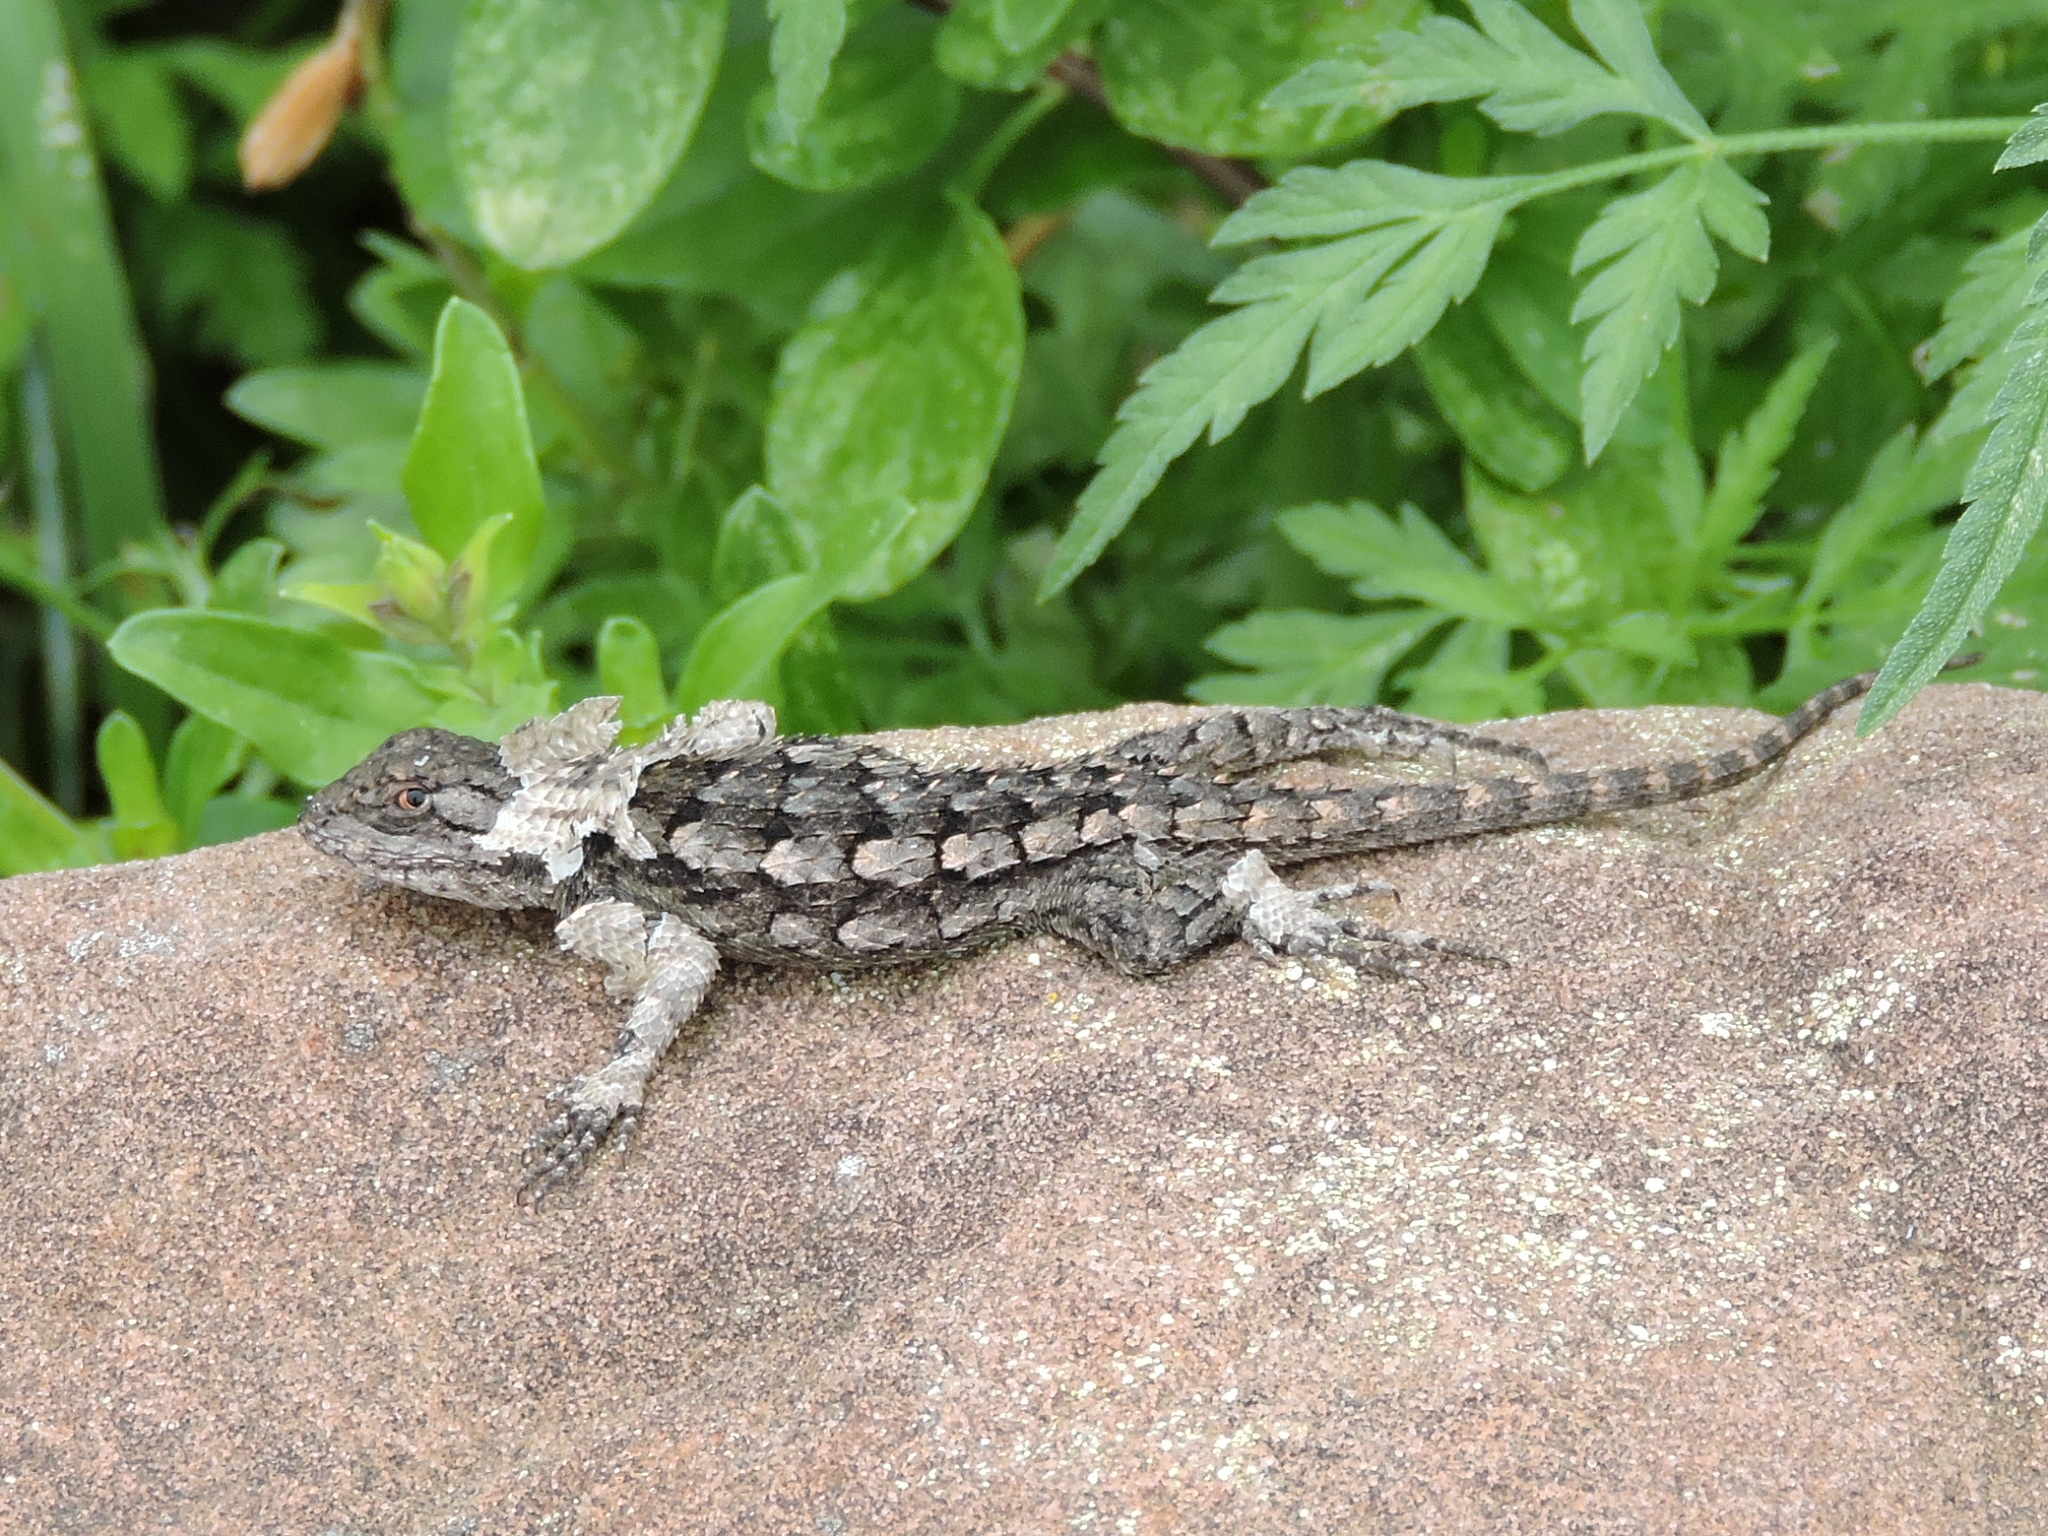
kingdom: Animalia
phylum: Chordata
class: Squamata
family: Phrynosomatidae
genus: Sceloporus
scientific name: Sceloporus olivaceus
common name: Texas spiny lizard
